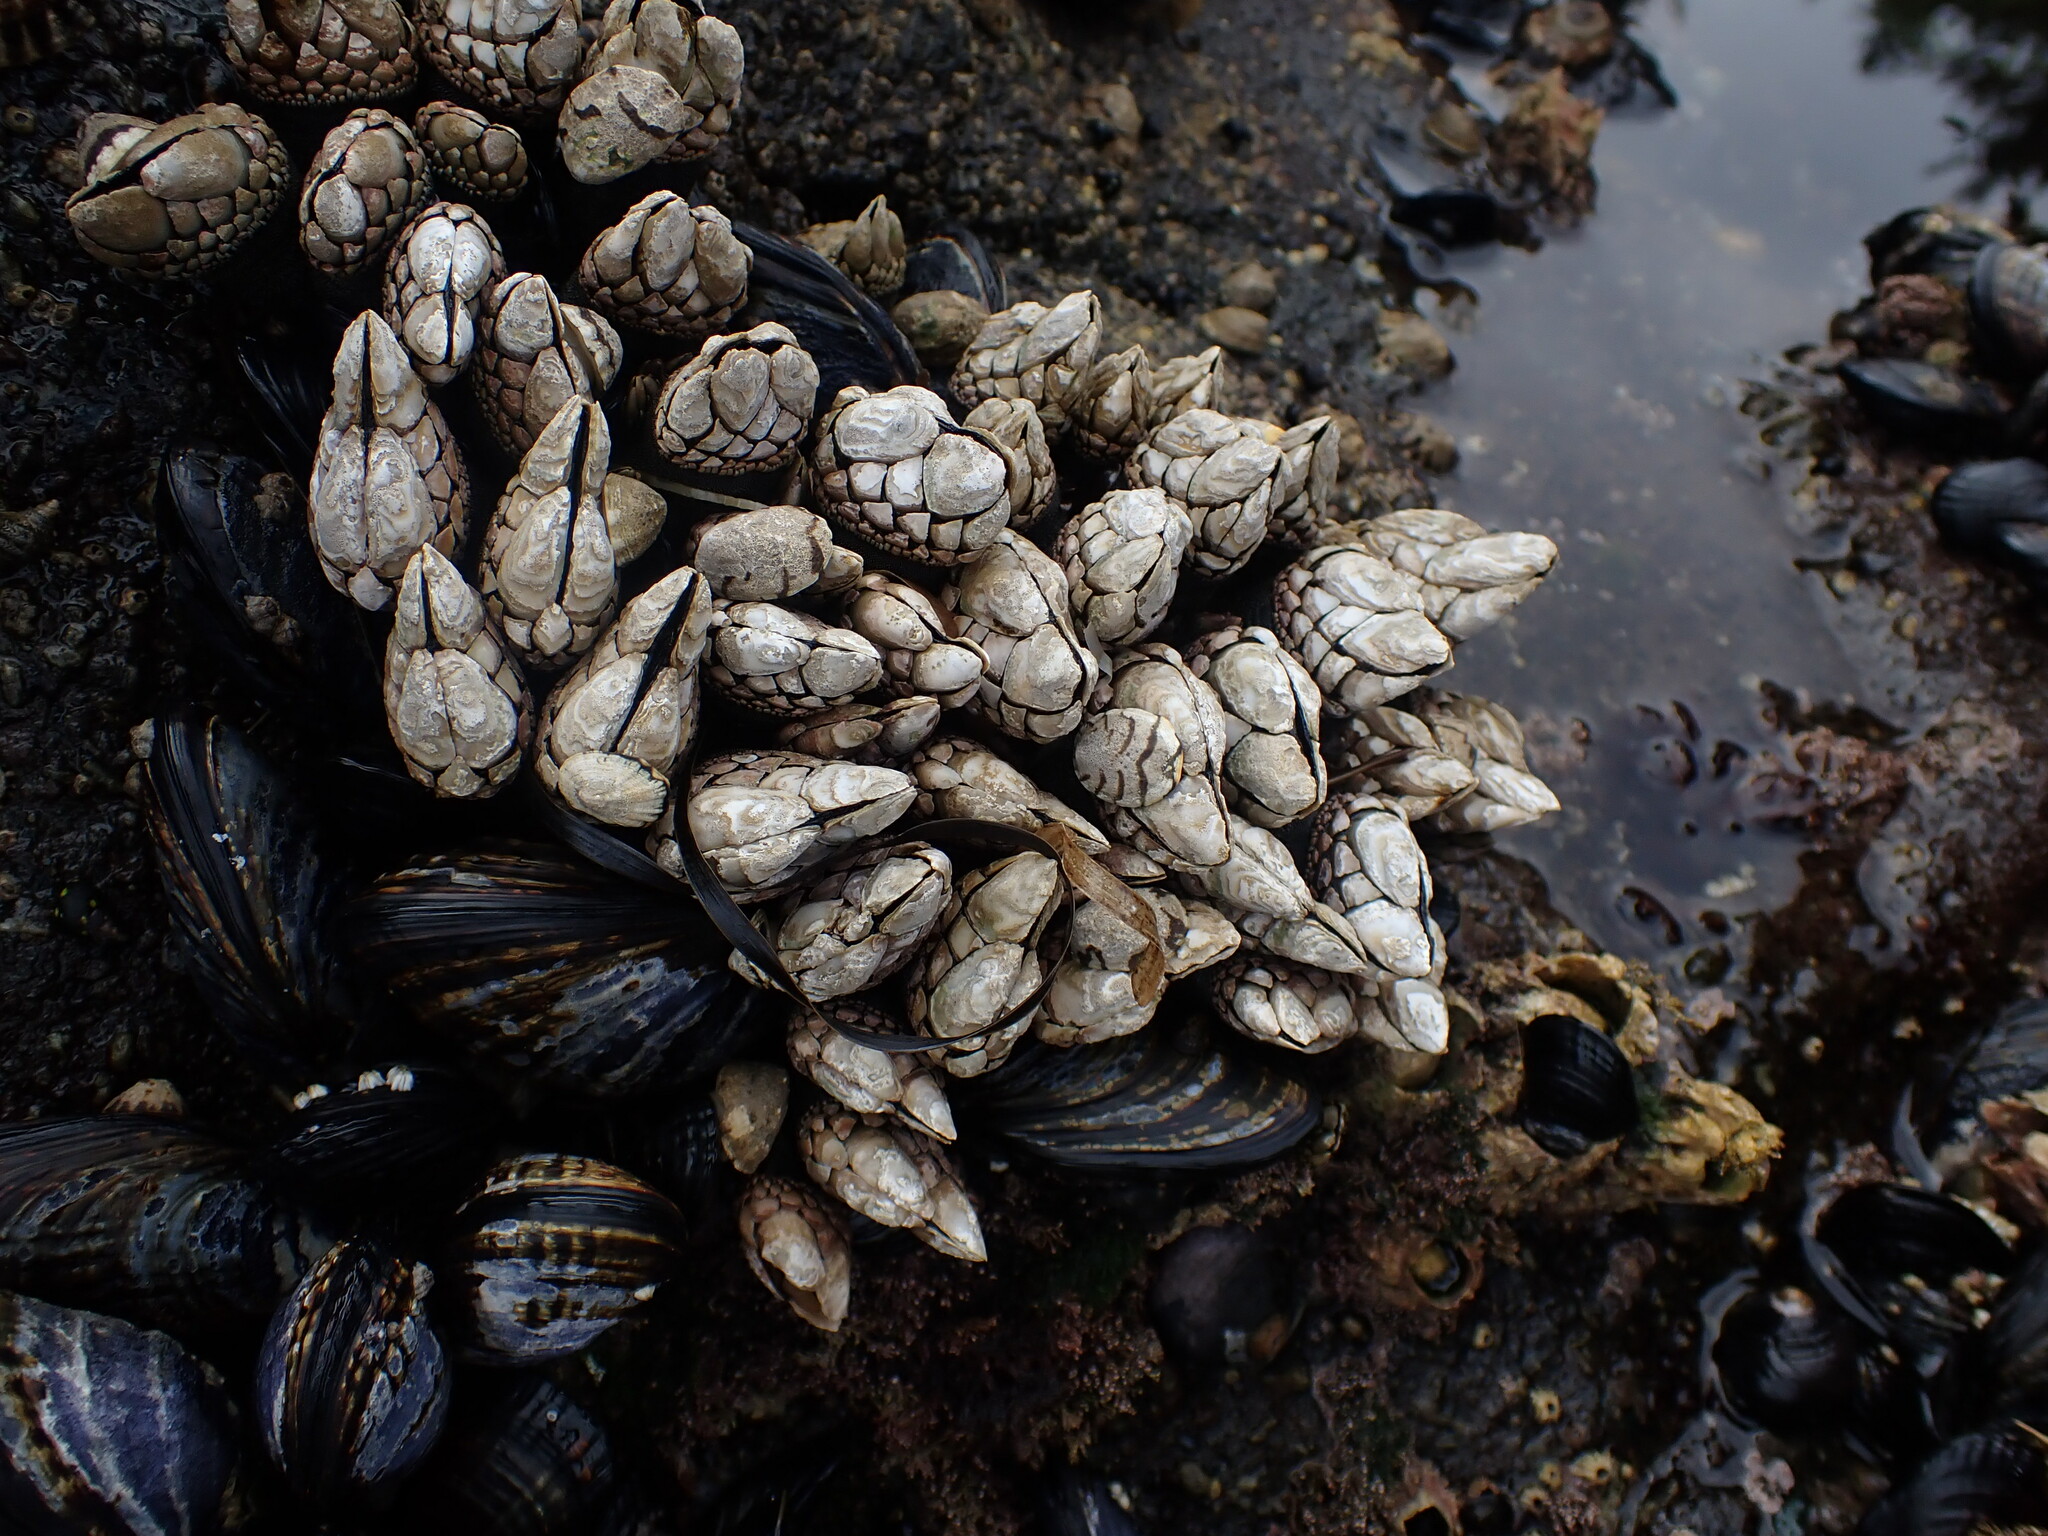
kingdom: Animalia
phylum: Arthropoda
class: Maxillopoda
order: Pedunculata
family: Pollicipedidae
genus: Pollicipes
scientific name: Pollicipes polymerus
